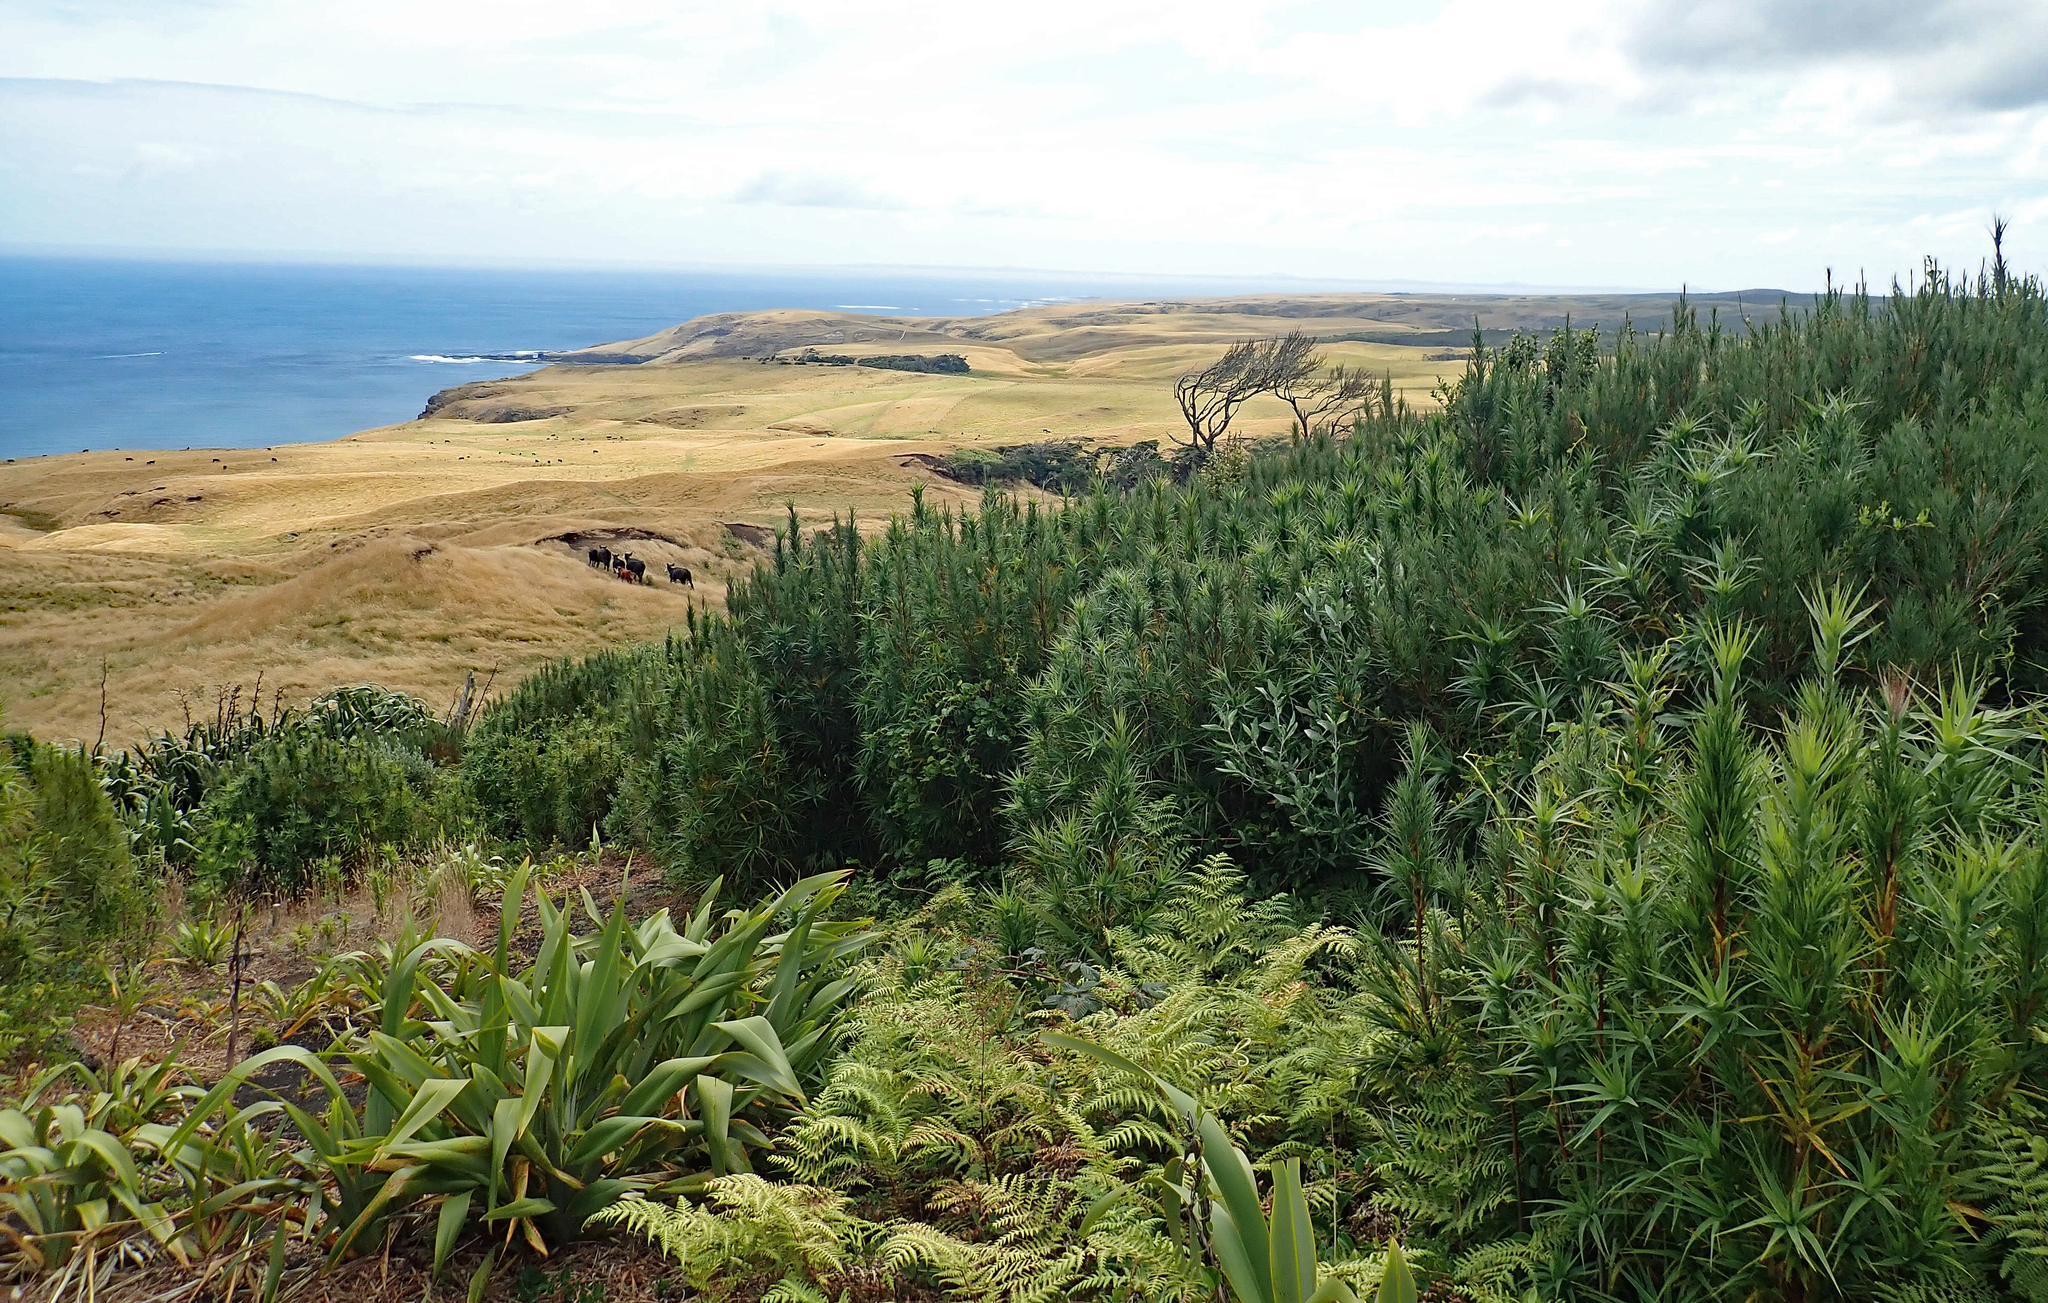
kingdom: Plantae
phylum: Tracheophyta
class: Magnoliopsida
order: Ericales
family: Ericaceae
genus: Dracophyllum
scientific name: Dracophyllum arboreum
